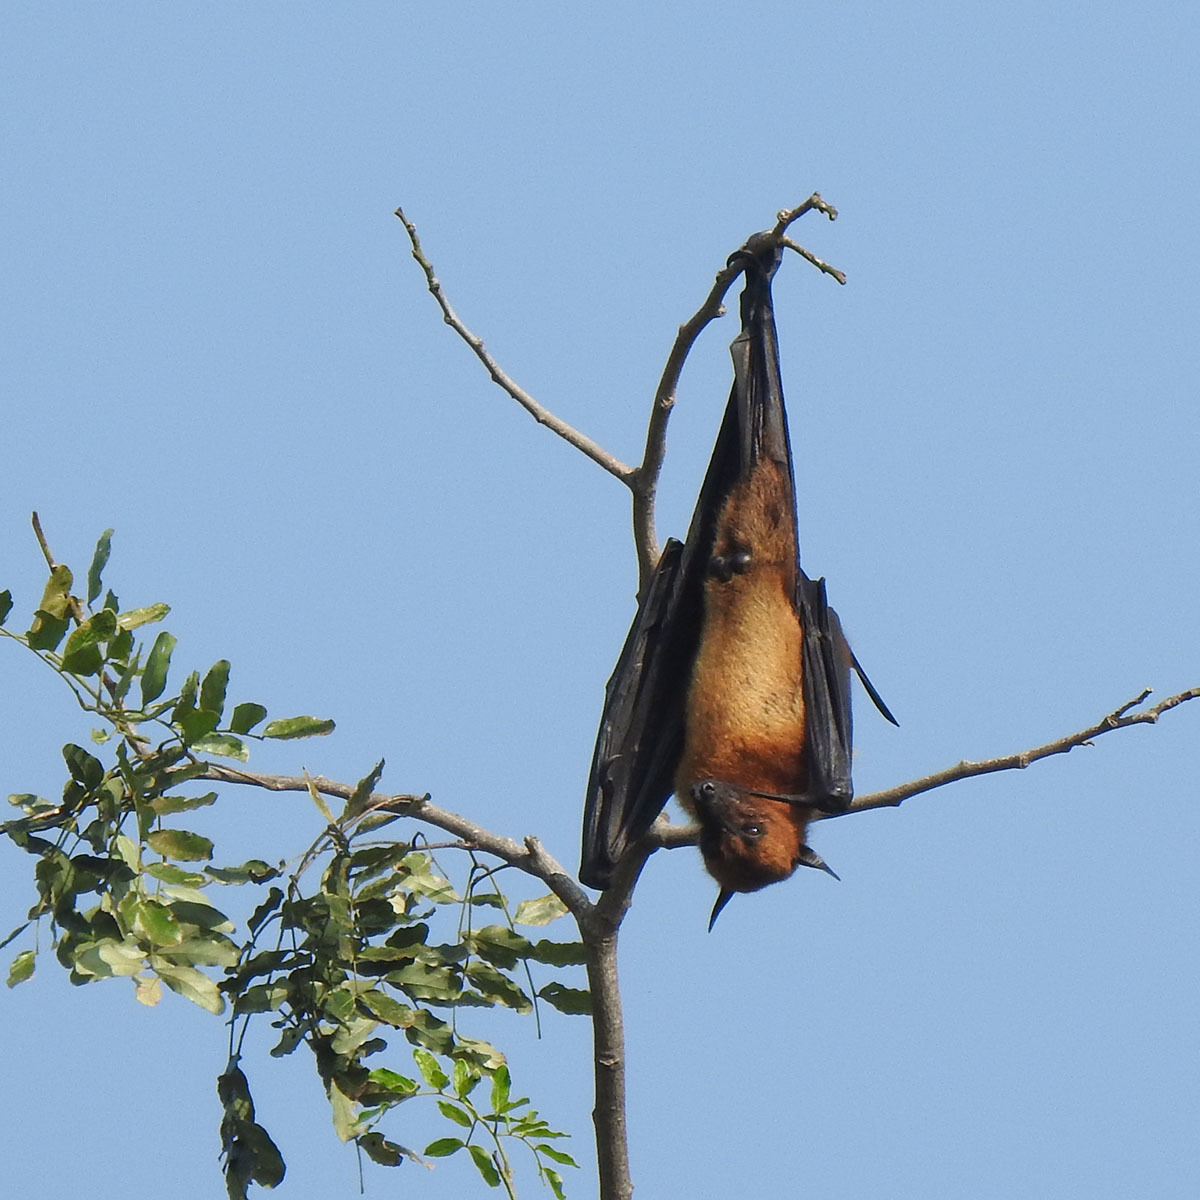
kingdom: Animalia
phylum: Chordata
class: Mammalia
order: Chiroptera
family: Pteropodidae
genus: Pteropus
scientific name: Pteropus vampyrus
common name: Large flying fox
